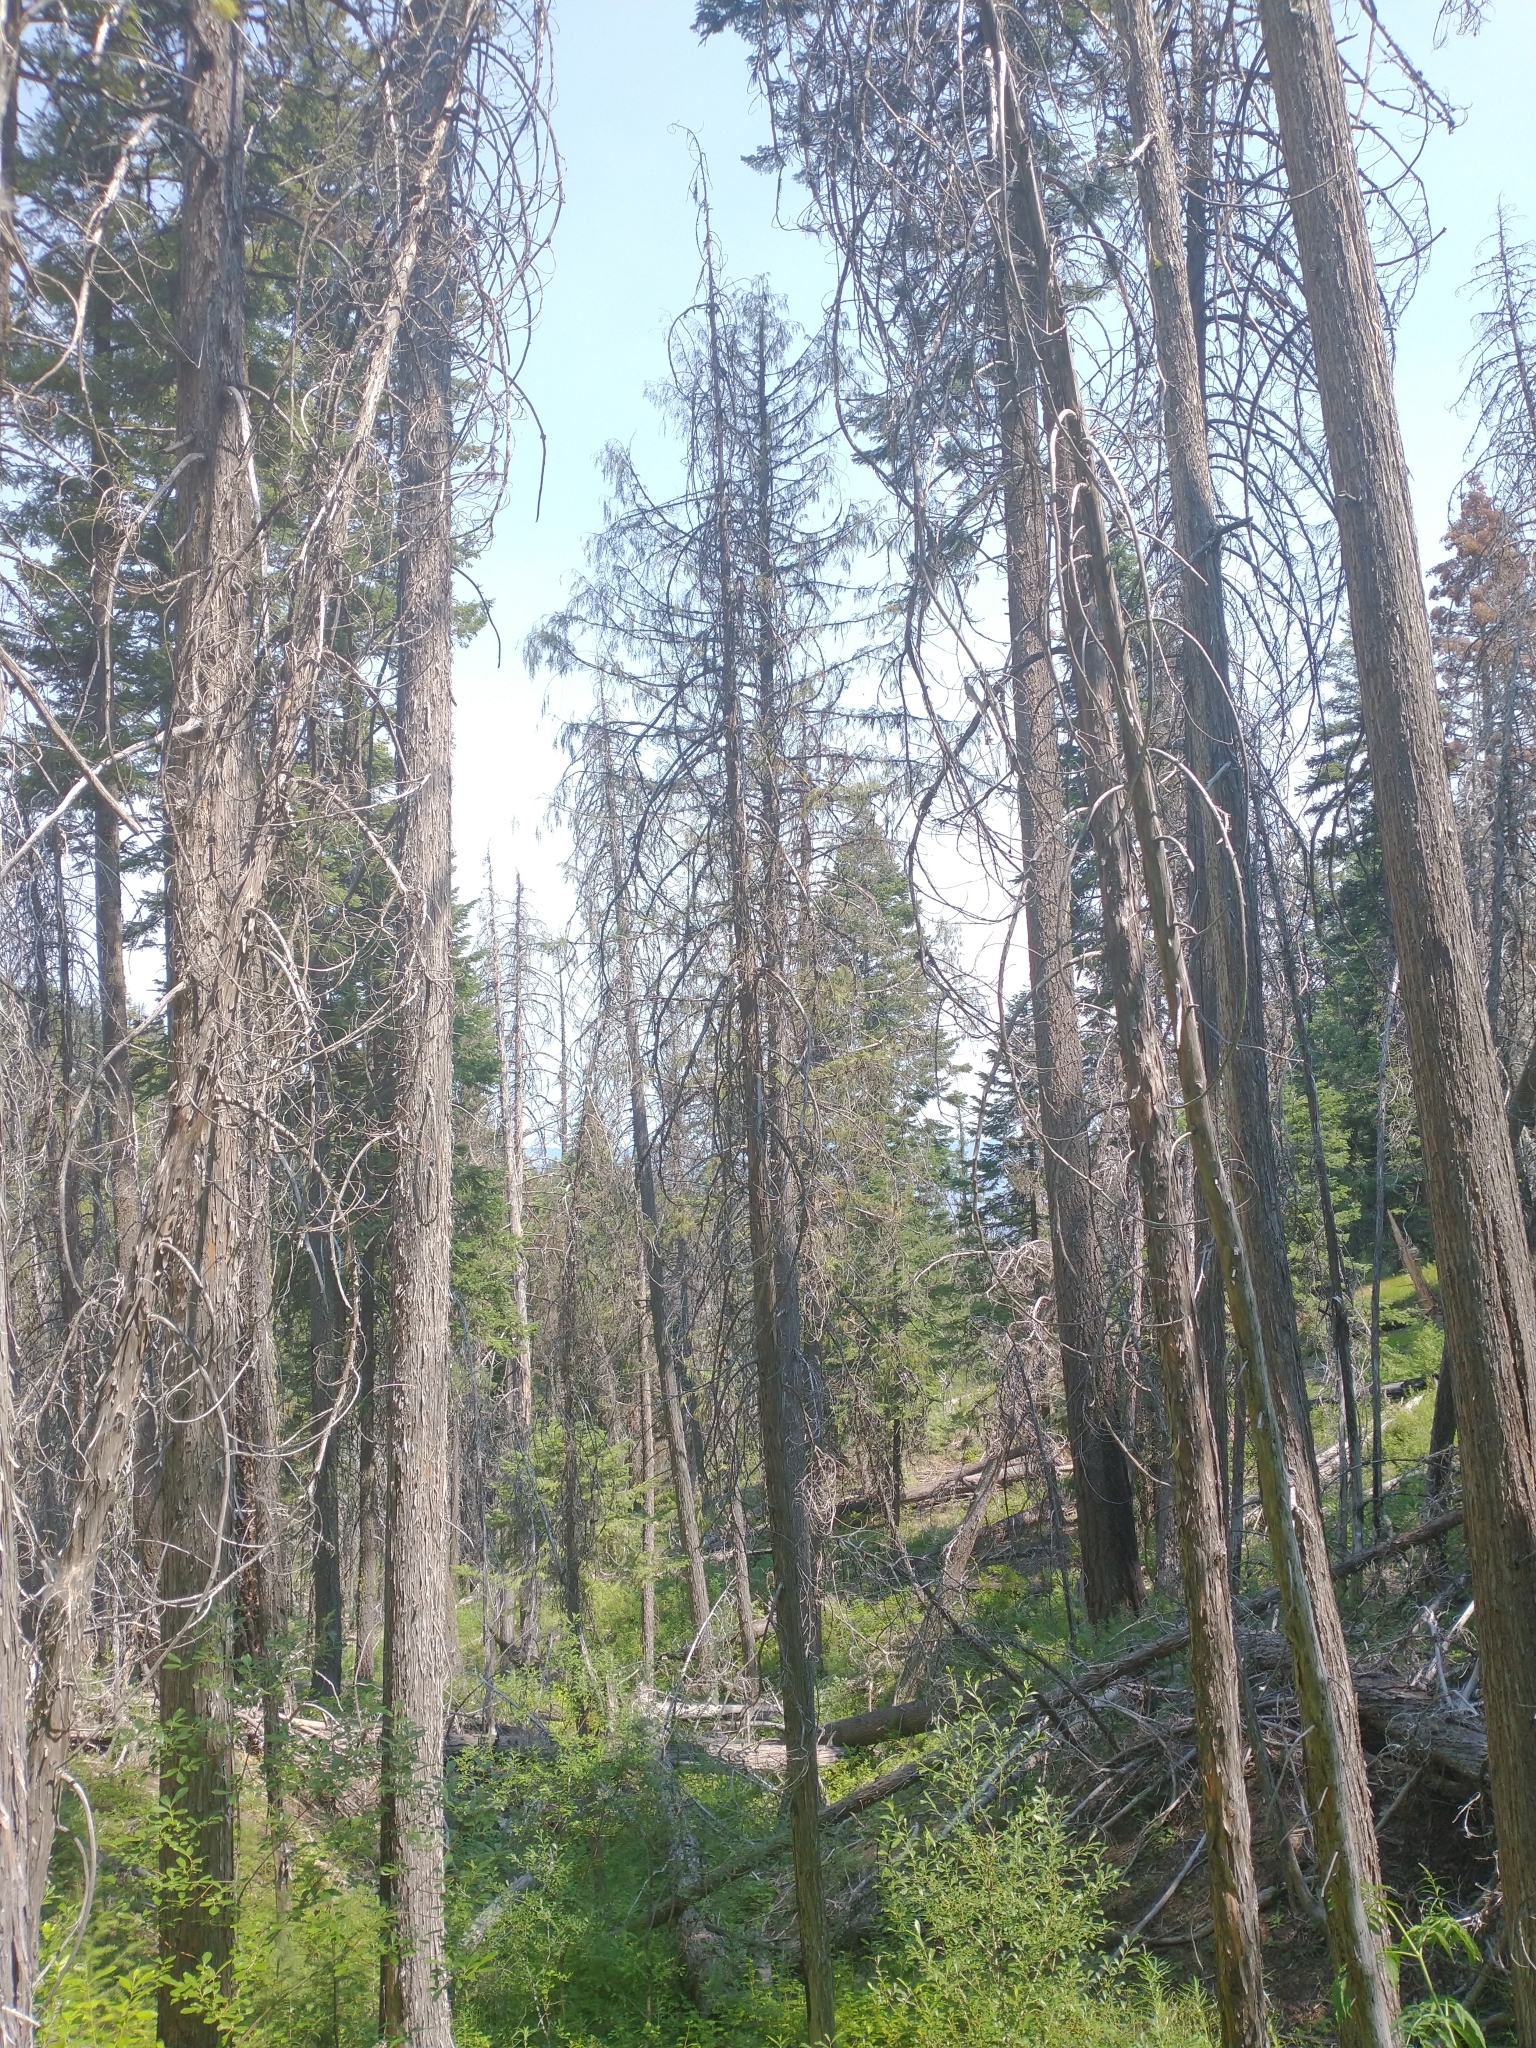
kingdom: Plantae
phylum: Tracheophyta
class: Pinopsida
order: Pinales
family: Cupressaceae
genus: Xanthocyparis
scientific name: Xanthocyparis nootkatensis
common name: Nootka cypress
